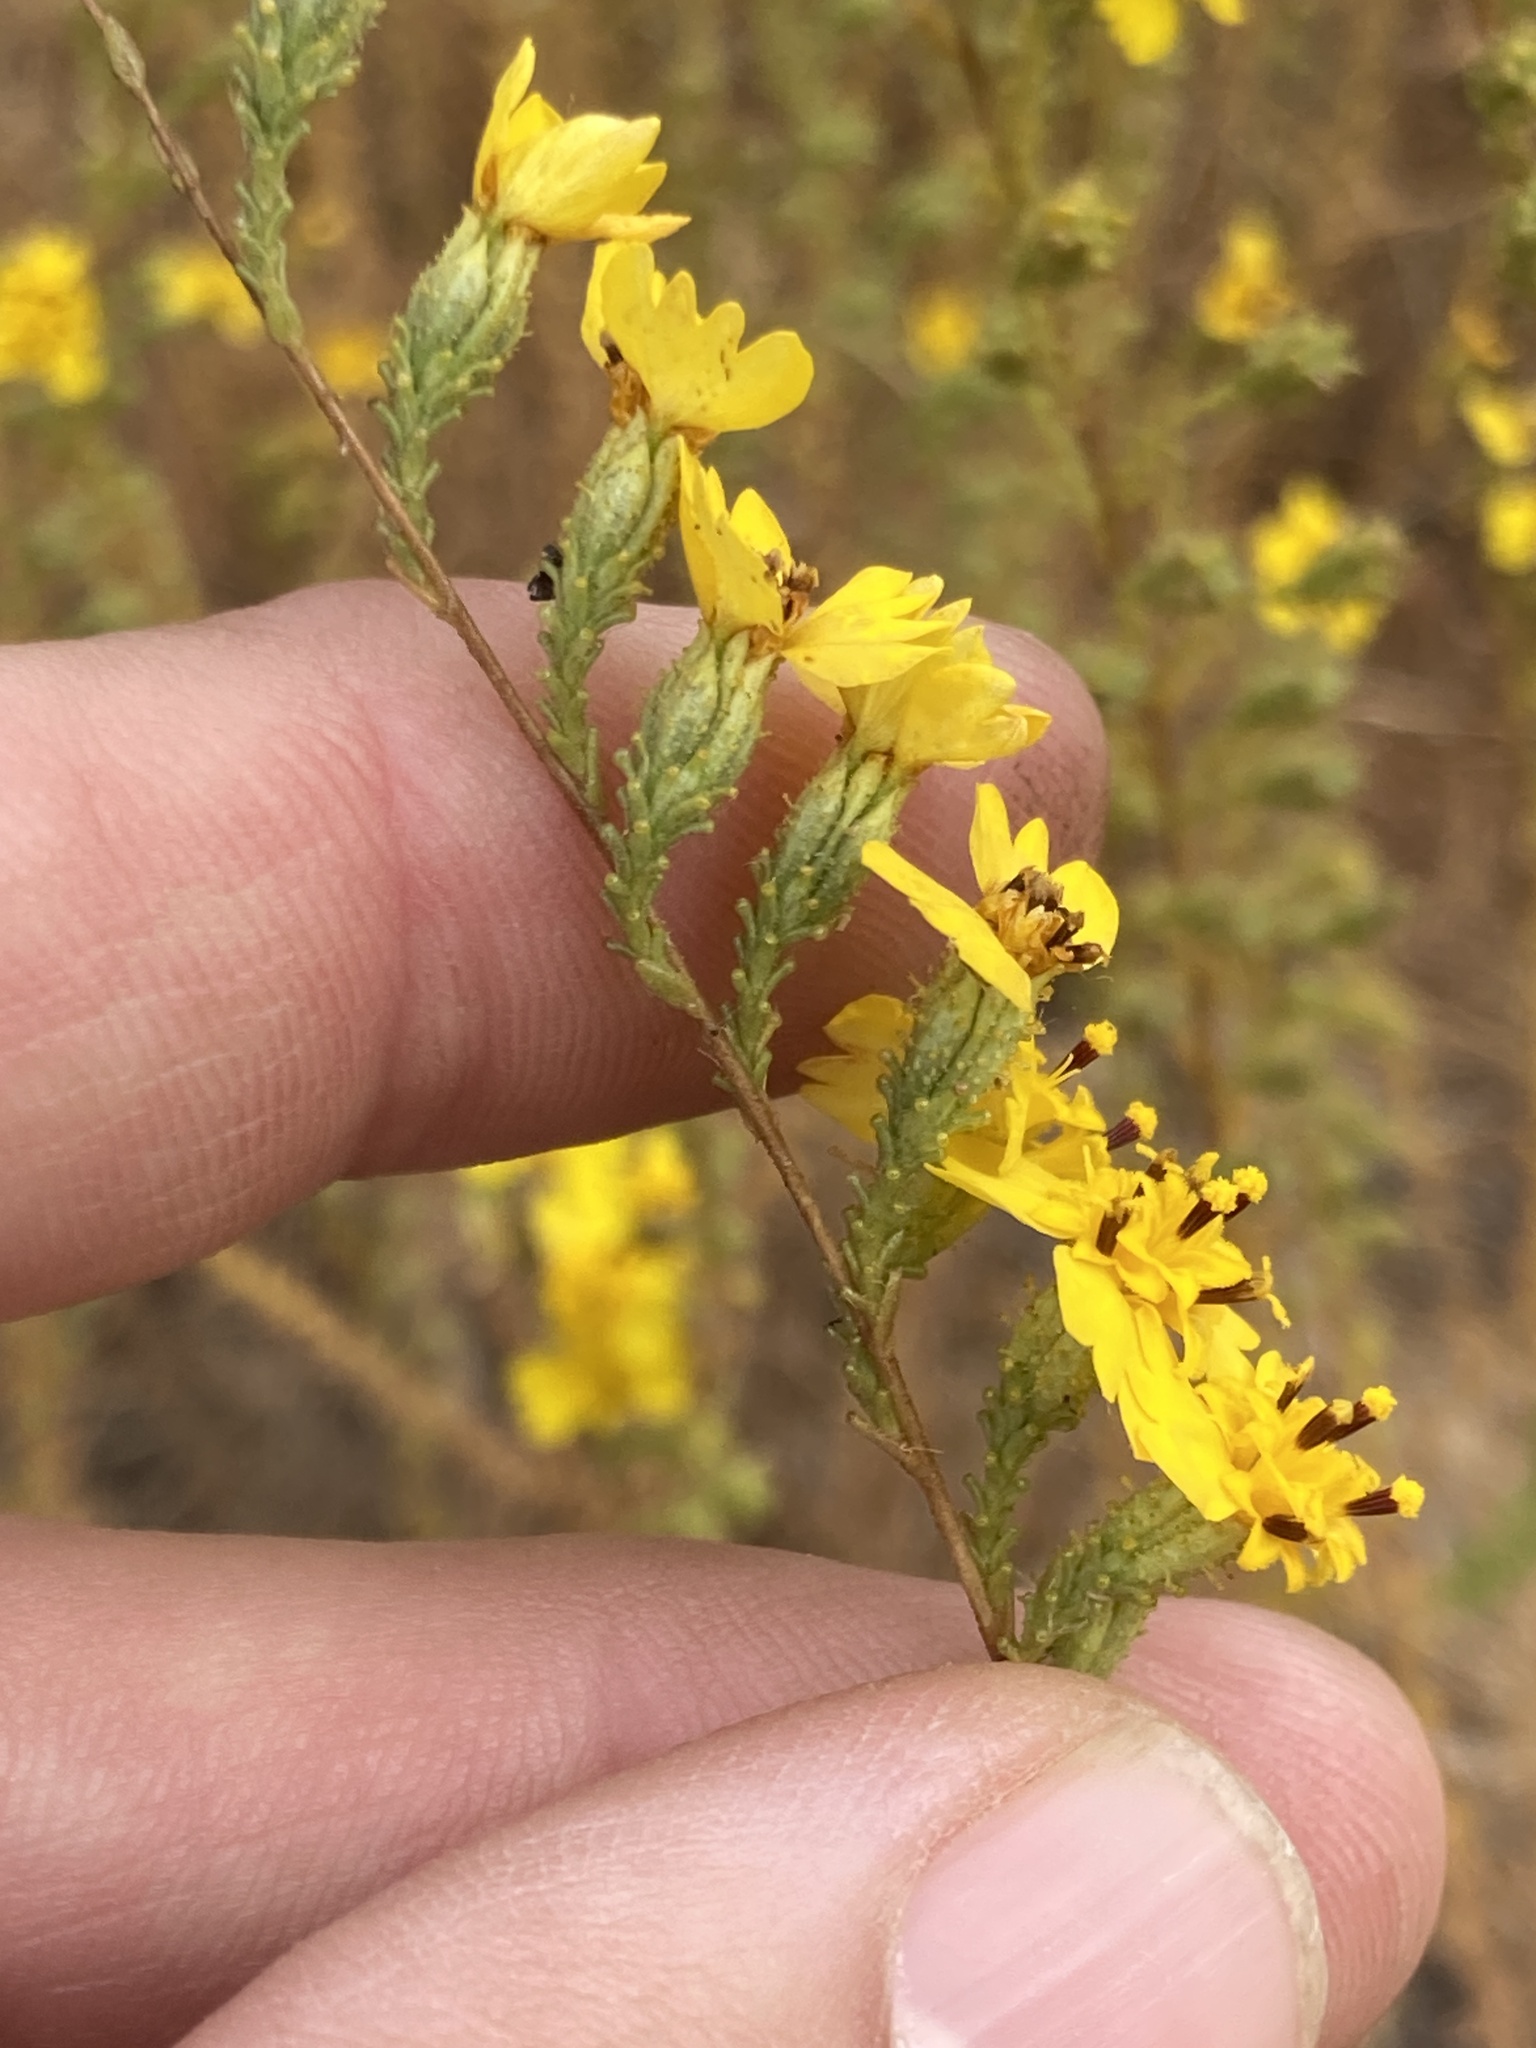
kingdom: Plantae
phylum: Tracheophyta
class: Magnoliopsida
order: Asterales
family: Asteraceae
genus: Holocarpha
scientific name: Holocarpha virgata
